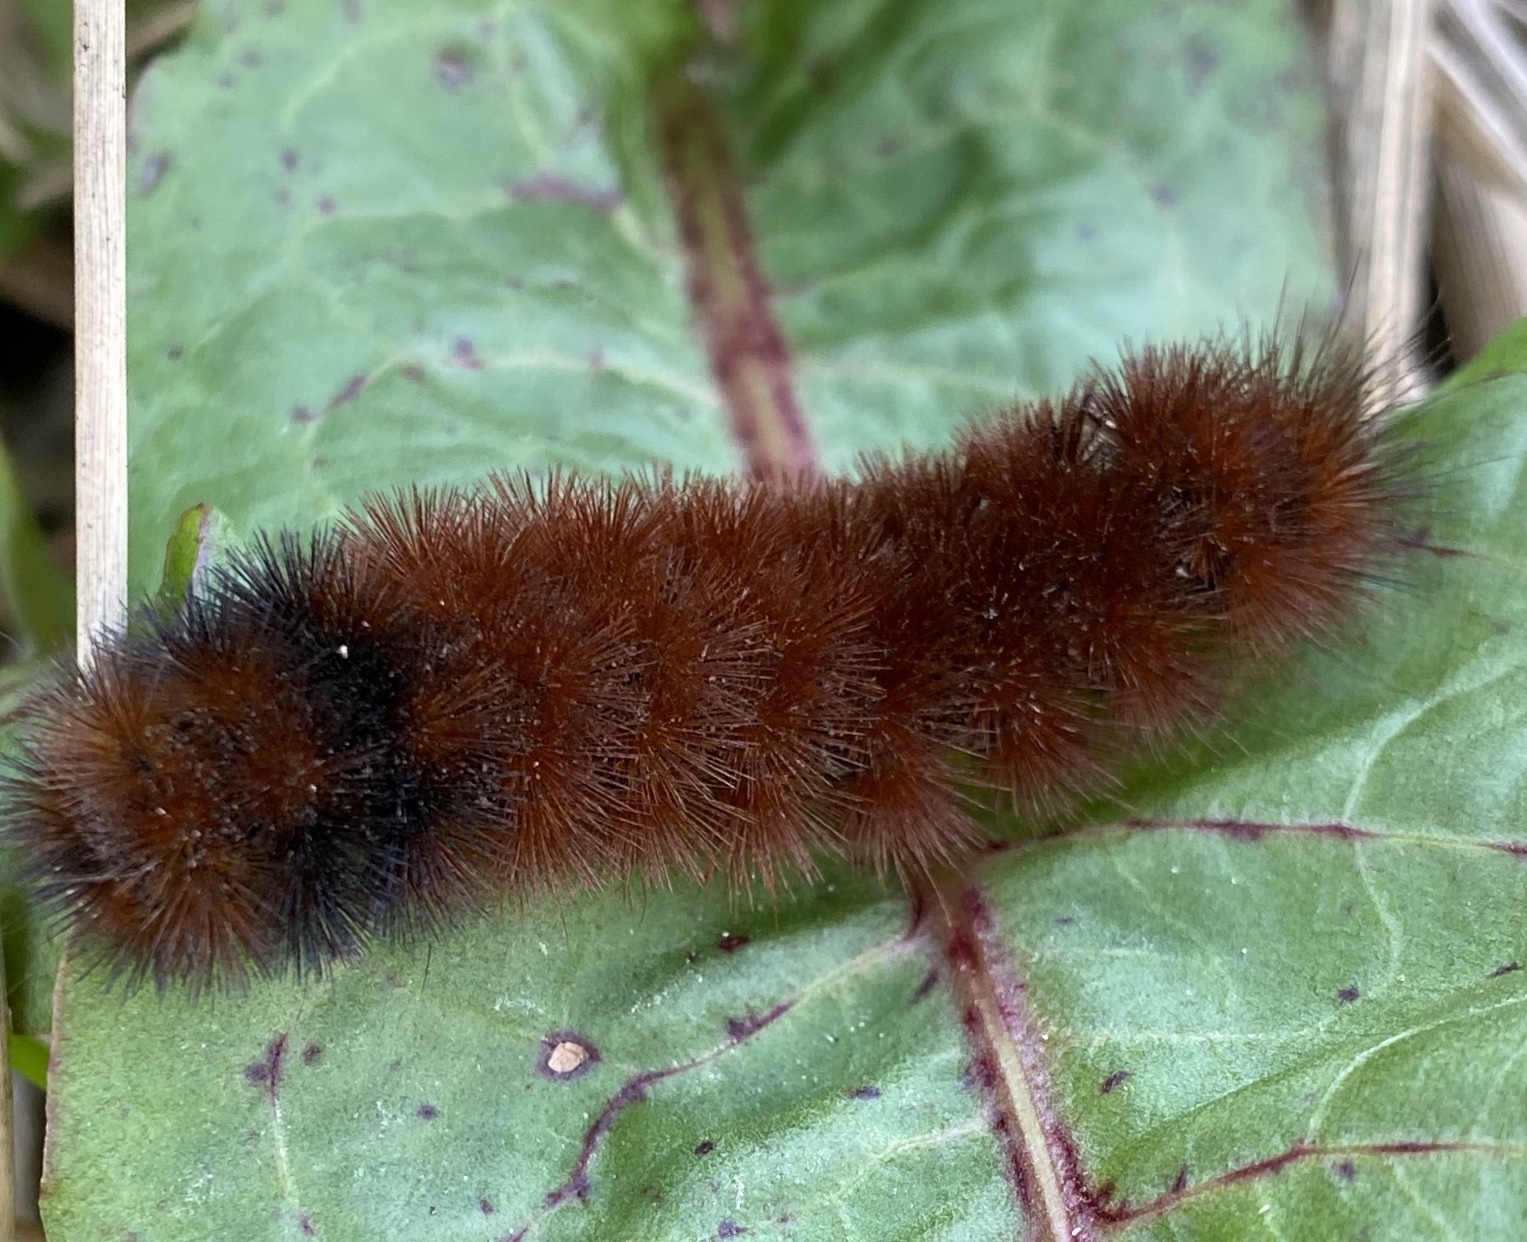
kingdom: Animalia
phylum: Arthropoda
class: Insecta
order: Lepidoptera
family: Erebidae
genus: Pyrrharctia
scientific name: Pyrrharctia isabella
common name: Isabella tiger moth
